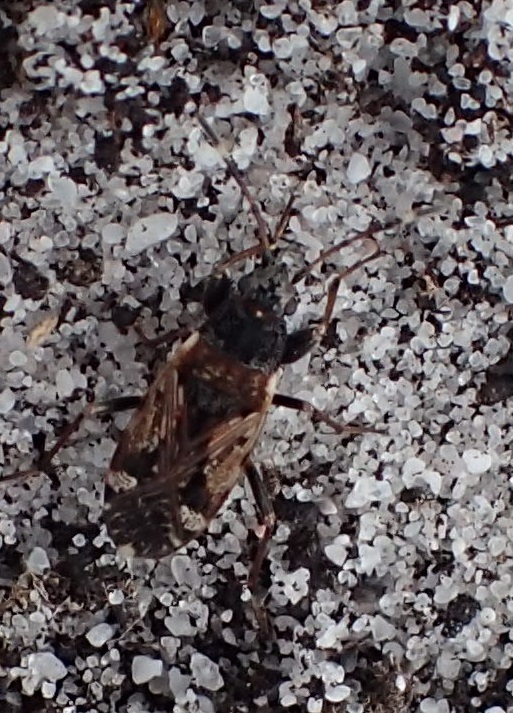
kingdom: Animalia
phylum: Arthropoda
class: Insecta
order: Hemiptera
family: Rhyparochromidae
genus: Euander
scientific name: Euander lacertosus
